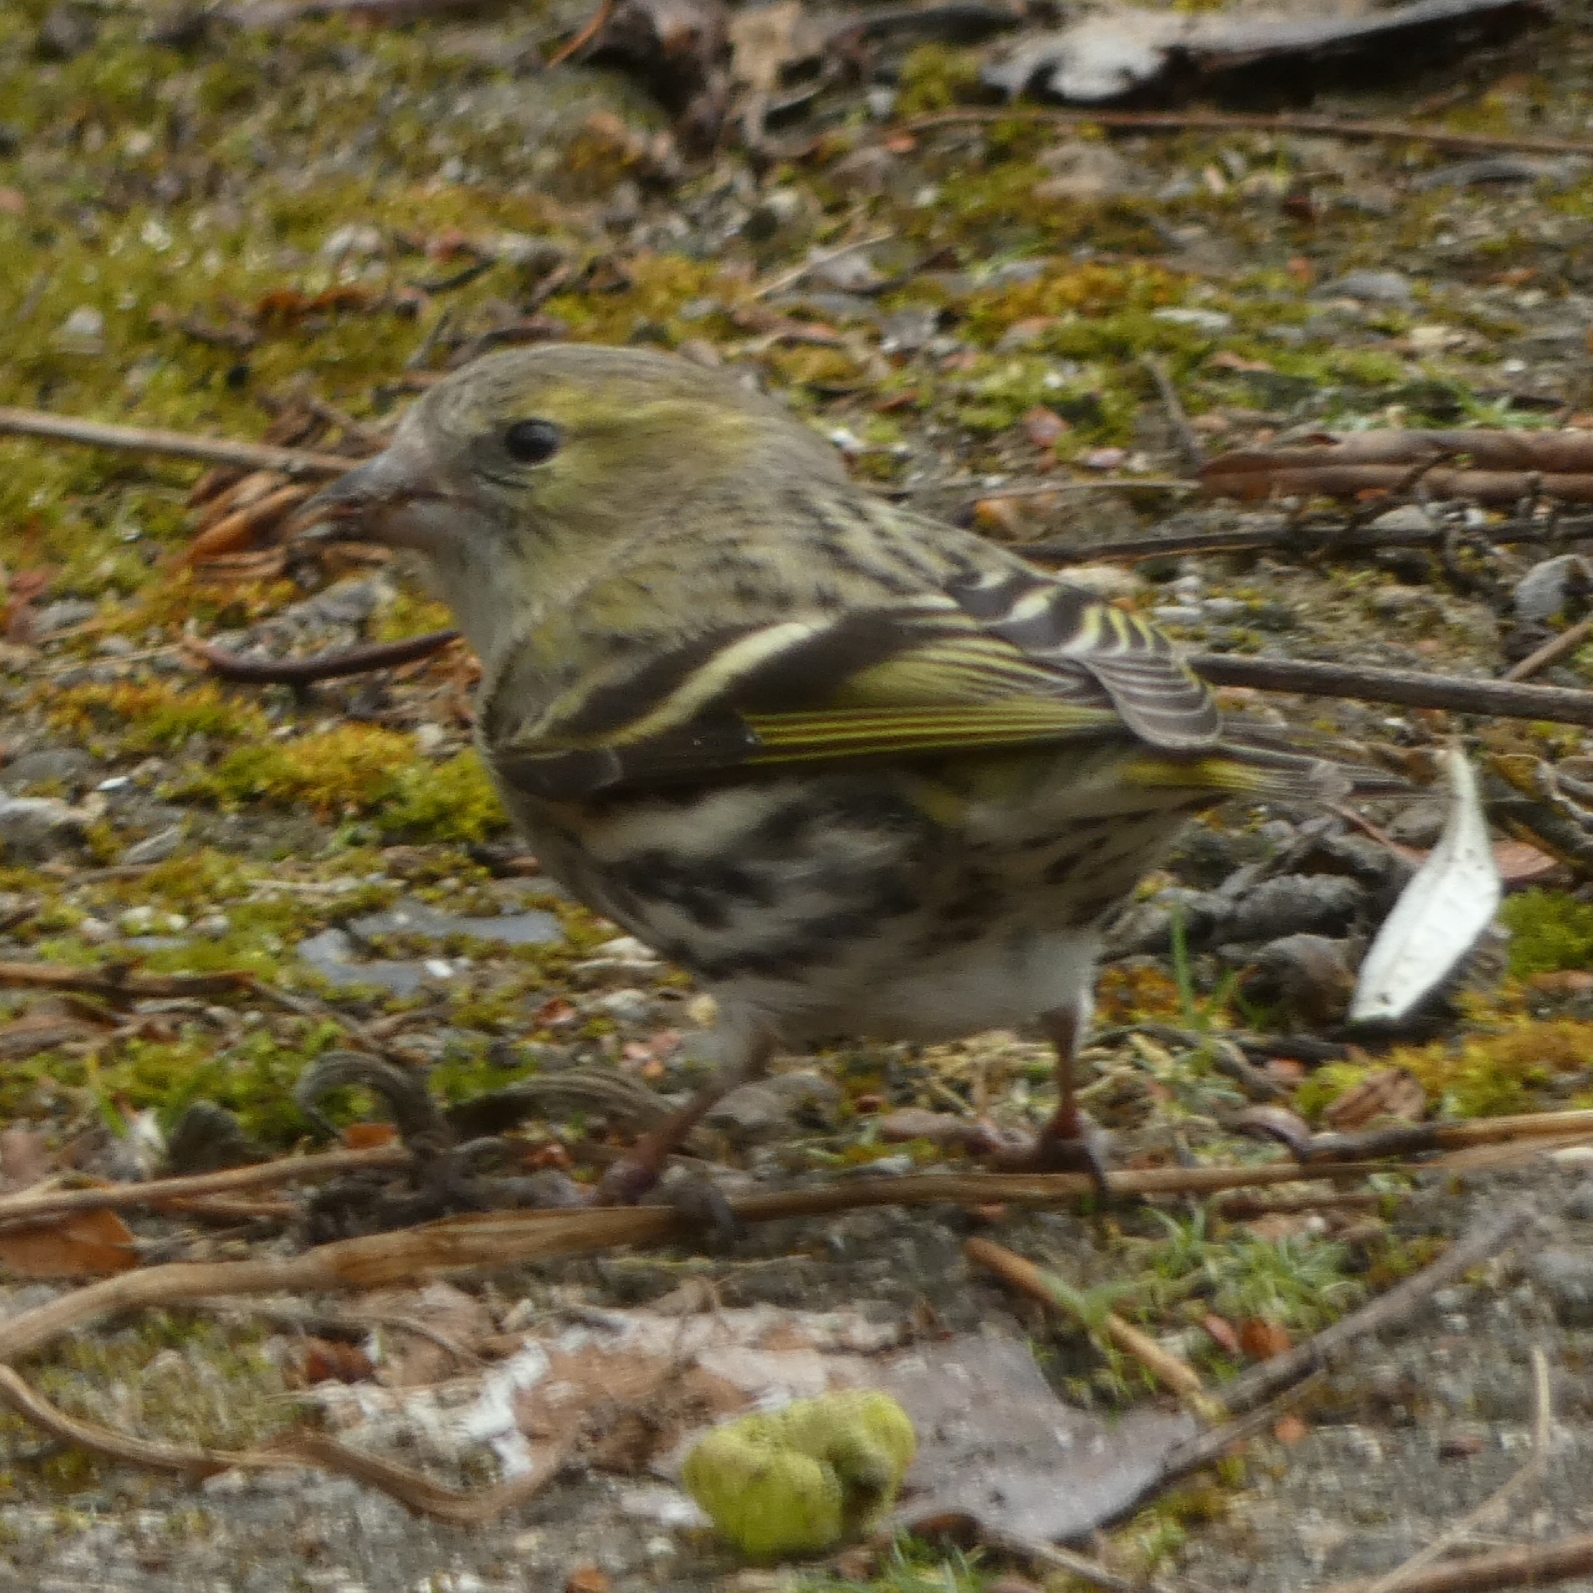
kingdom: Animalia
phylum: Chordata
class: Aves
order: Passeriformes
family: Fringillidae
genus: Spinus
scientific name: Spinus spinus
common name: Eurasian siskin
